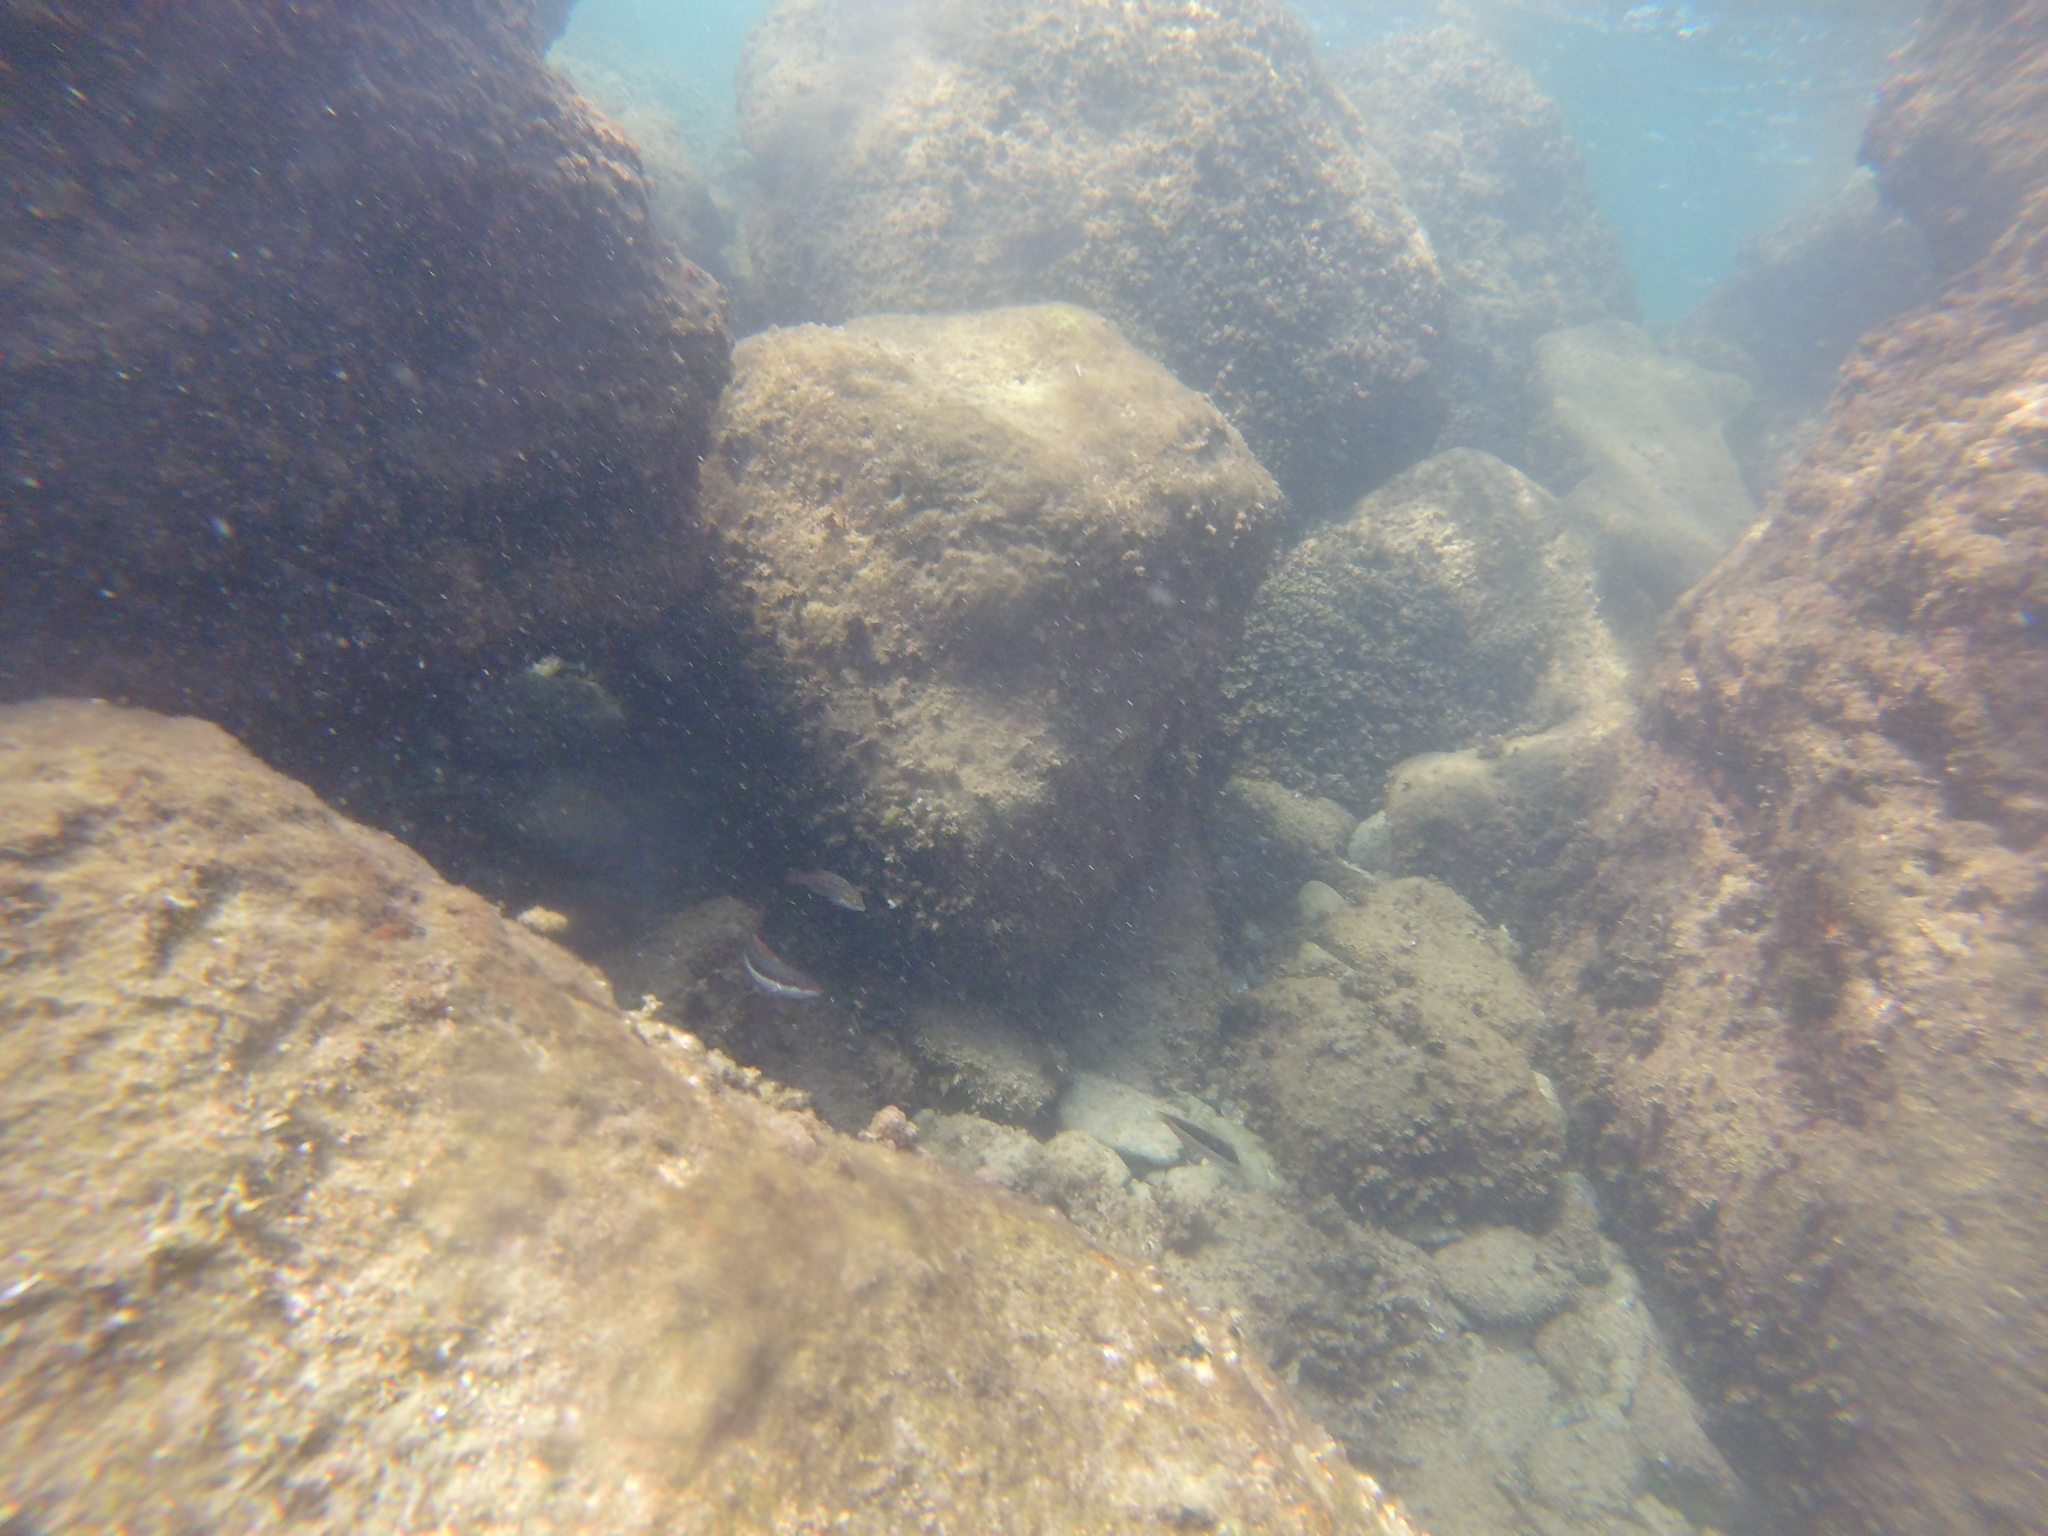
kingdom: Animalia
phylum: Chordata
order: Perciformes
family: Labridae
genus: Coris
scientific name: Coris julis
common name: Rainbow wrasse
